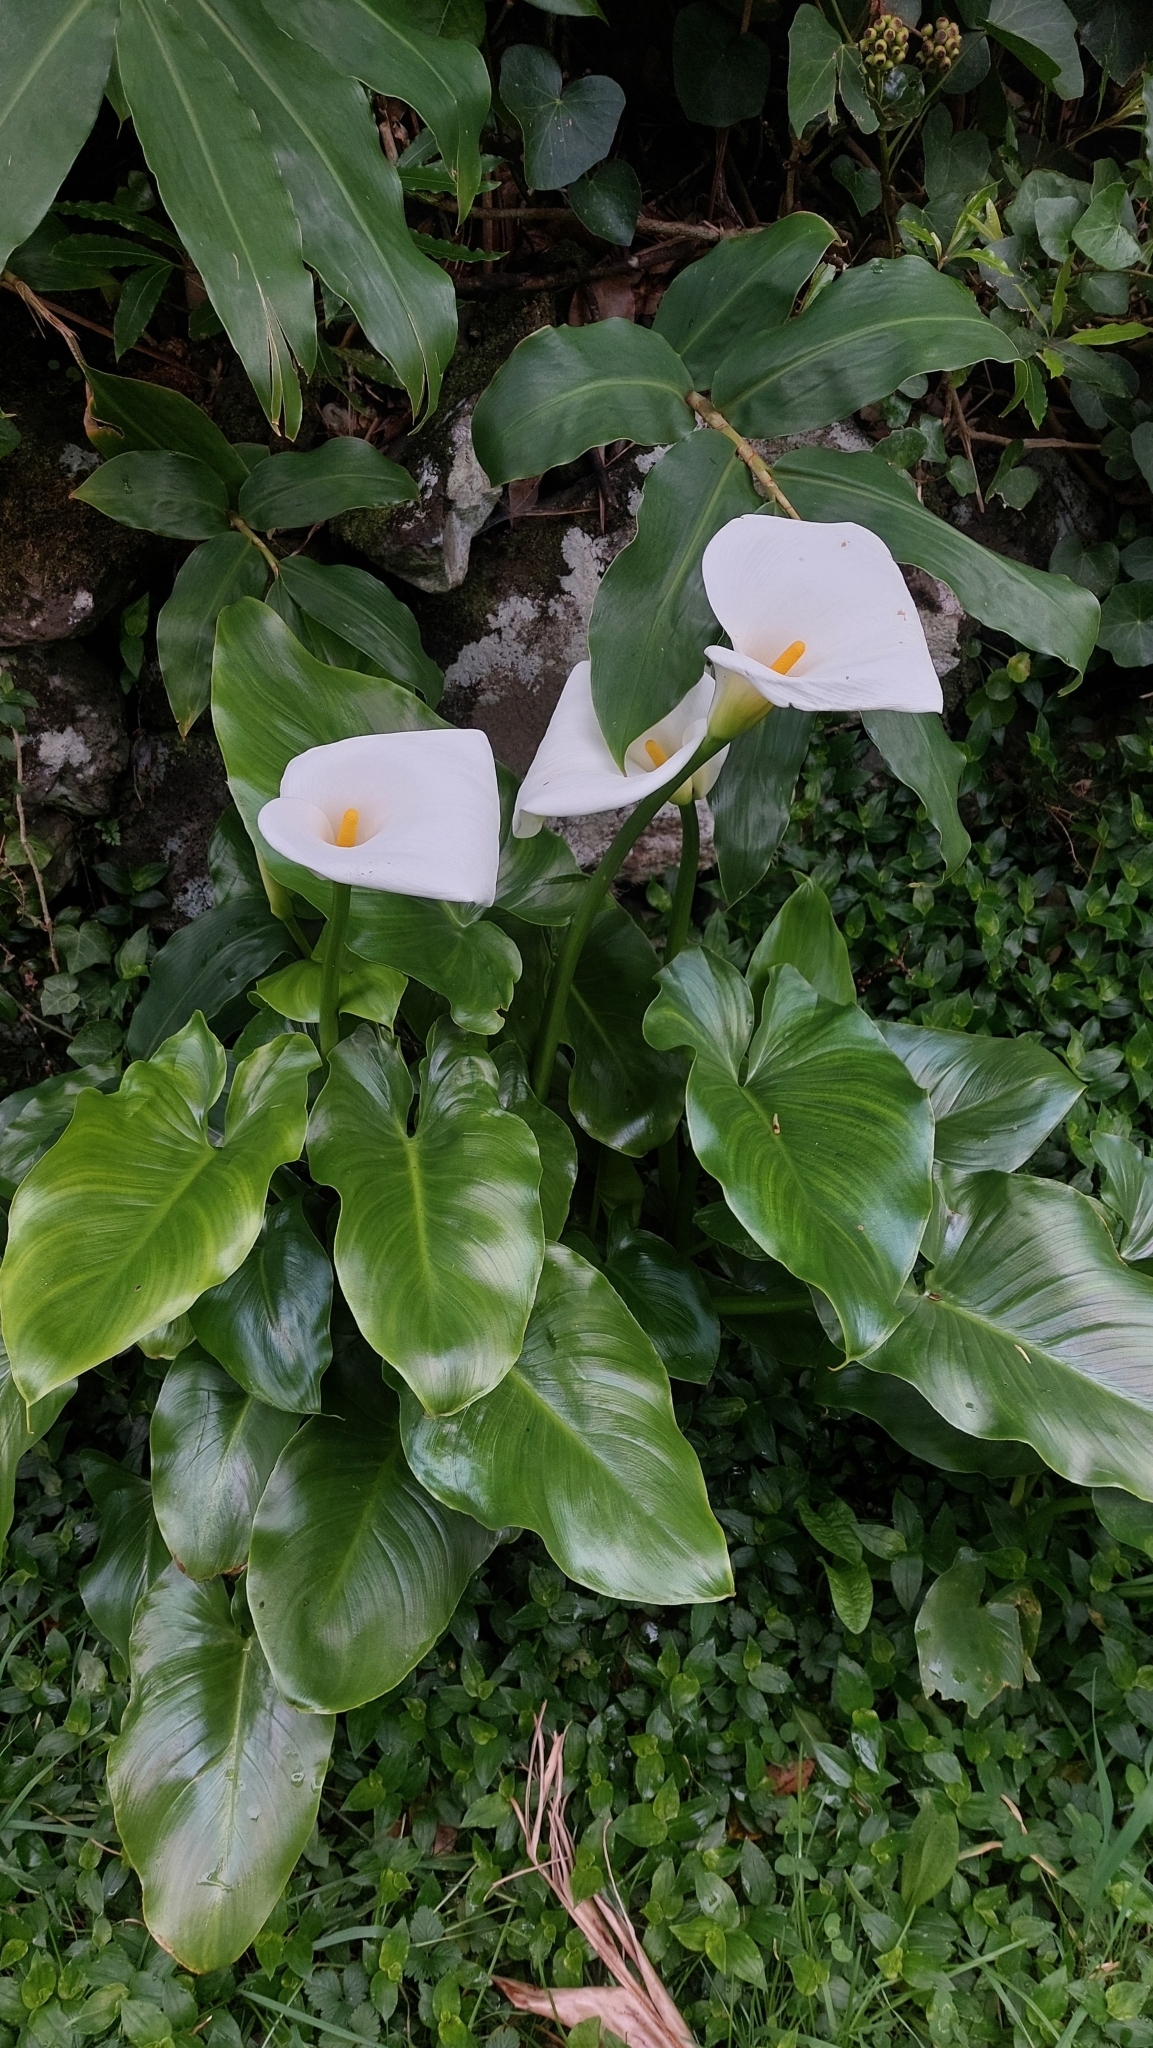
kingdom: Plantae
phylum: Tracheophyta
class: Liliopsida
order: Alismatales
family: Araceae
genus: Zantedeschia
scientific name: Zantedeschia aethiopica
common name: Altar-lily
